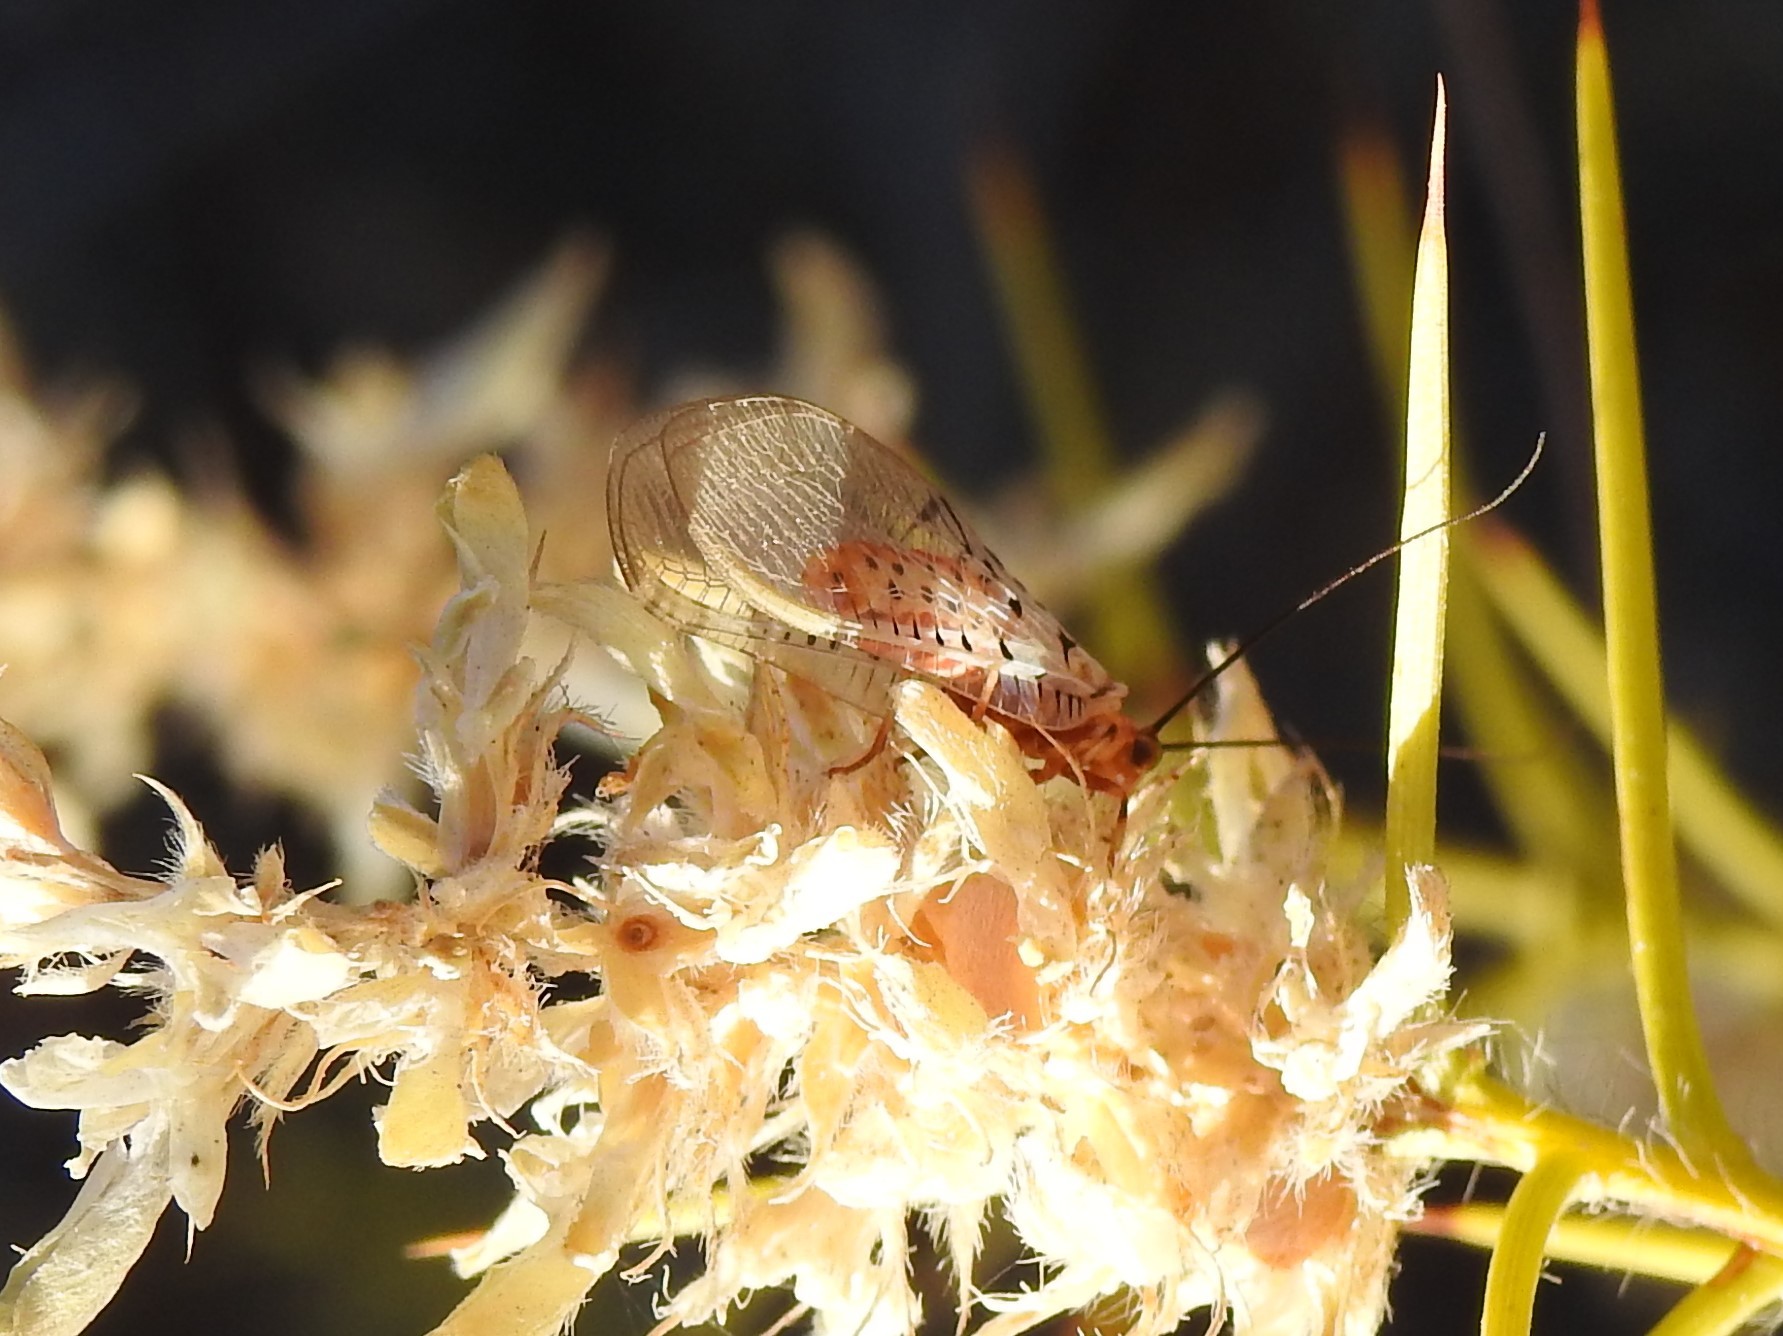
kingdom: Animalia
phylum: Arthropoda
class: Insecta
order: Neuroptera
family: Chrysopidae
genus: Italochrysa
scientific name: Italochrysa stigmatica
